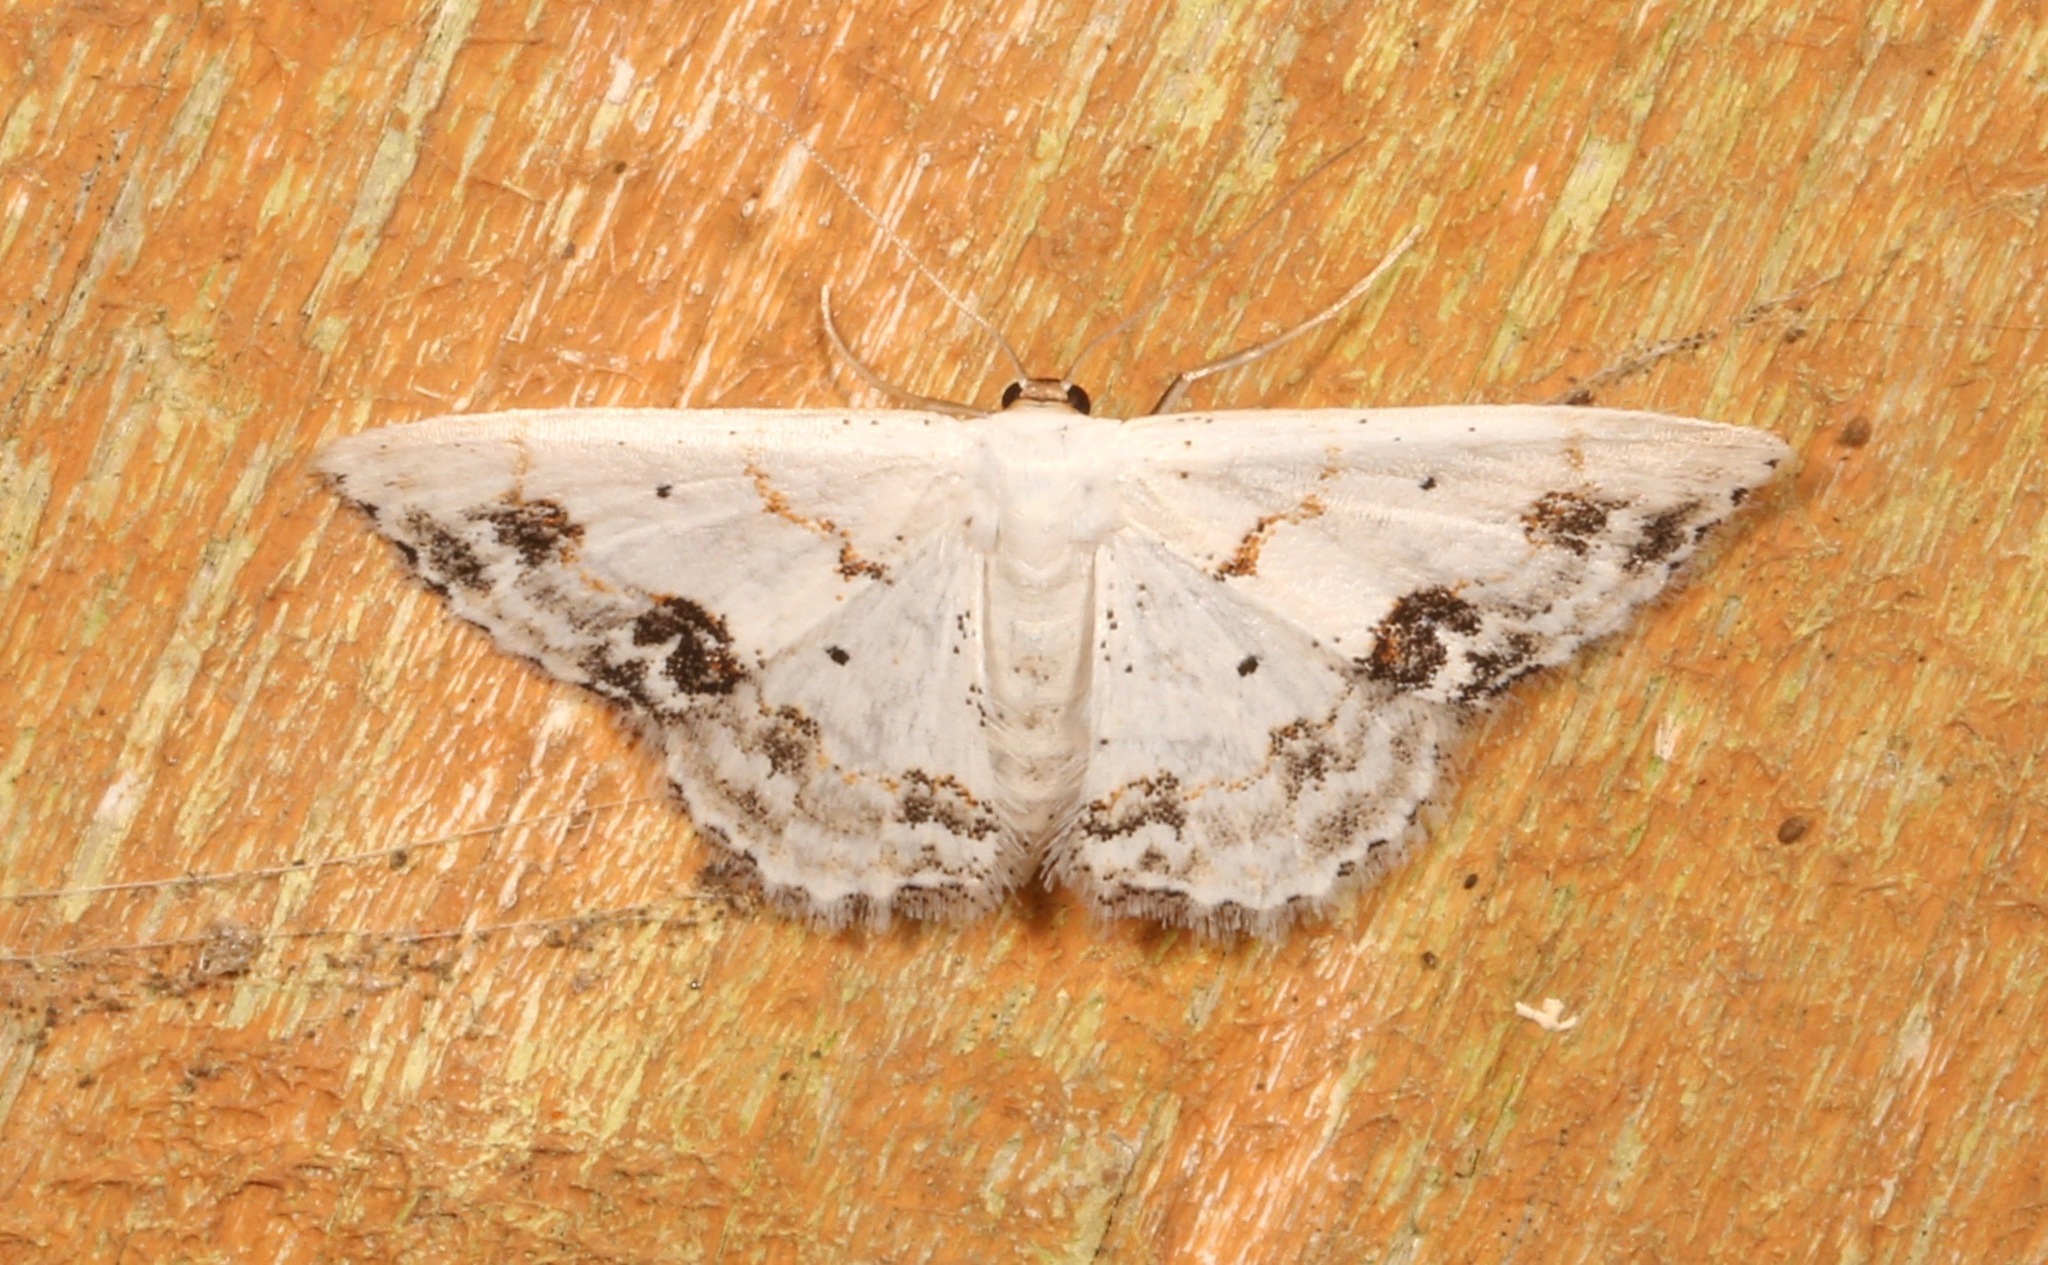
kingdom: Animalia
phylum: Arthropoda
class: Insecta
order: Lepidoptera
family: Geometridae
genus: Scopula
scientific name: Scopula lautaria
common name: Small frosted wave moth
